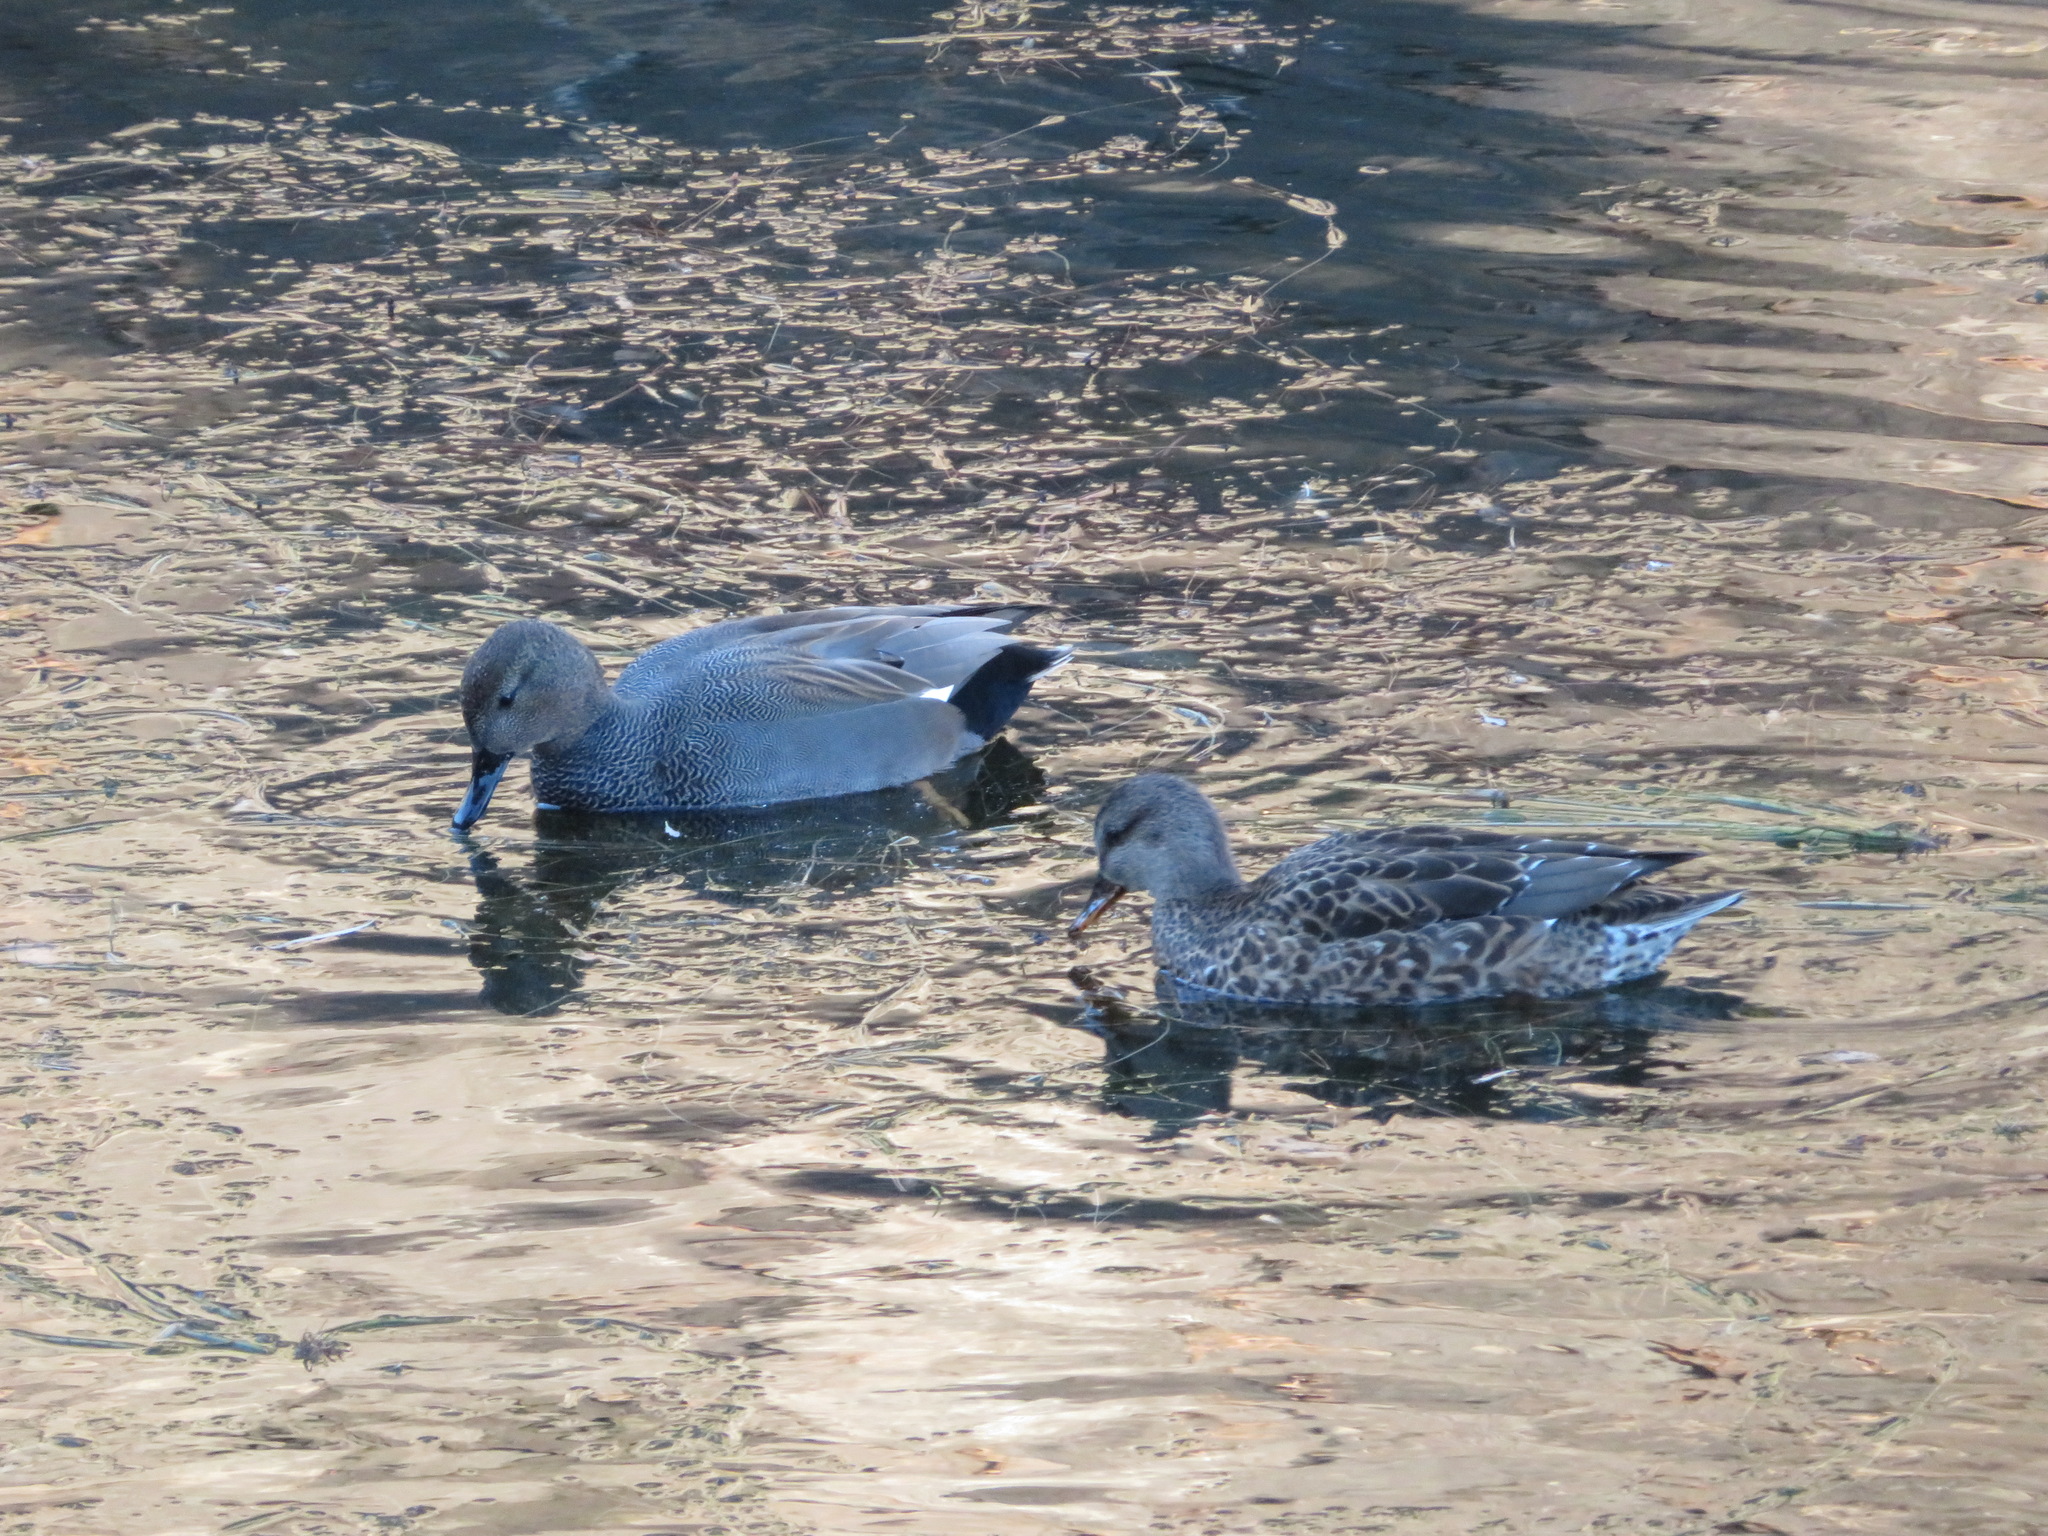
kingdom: Animalia
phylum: Chordata
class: Aves
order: Anseriformes
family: Anatidae
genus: Mareca
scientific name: Mareca strepera
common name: Gadwall
